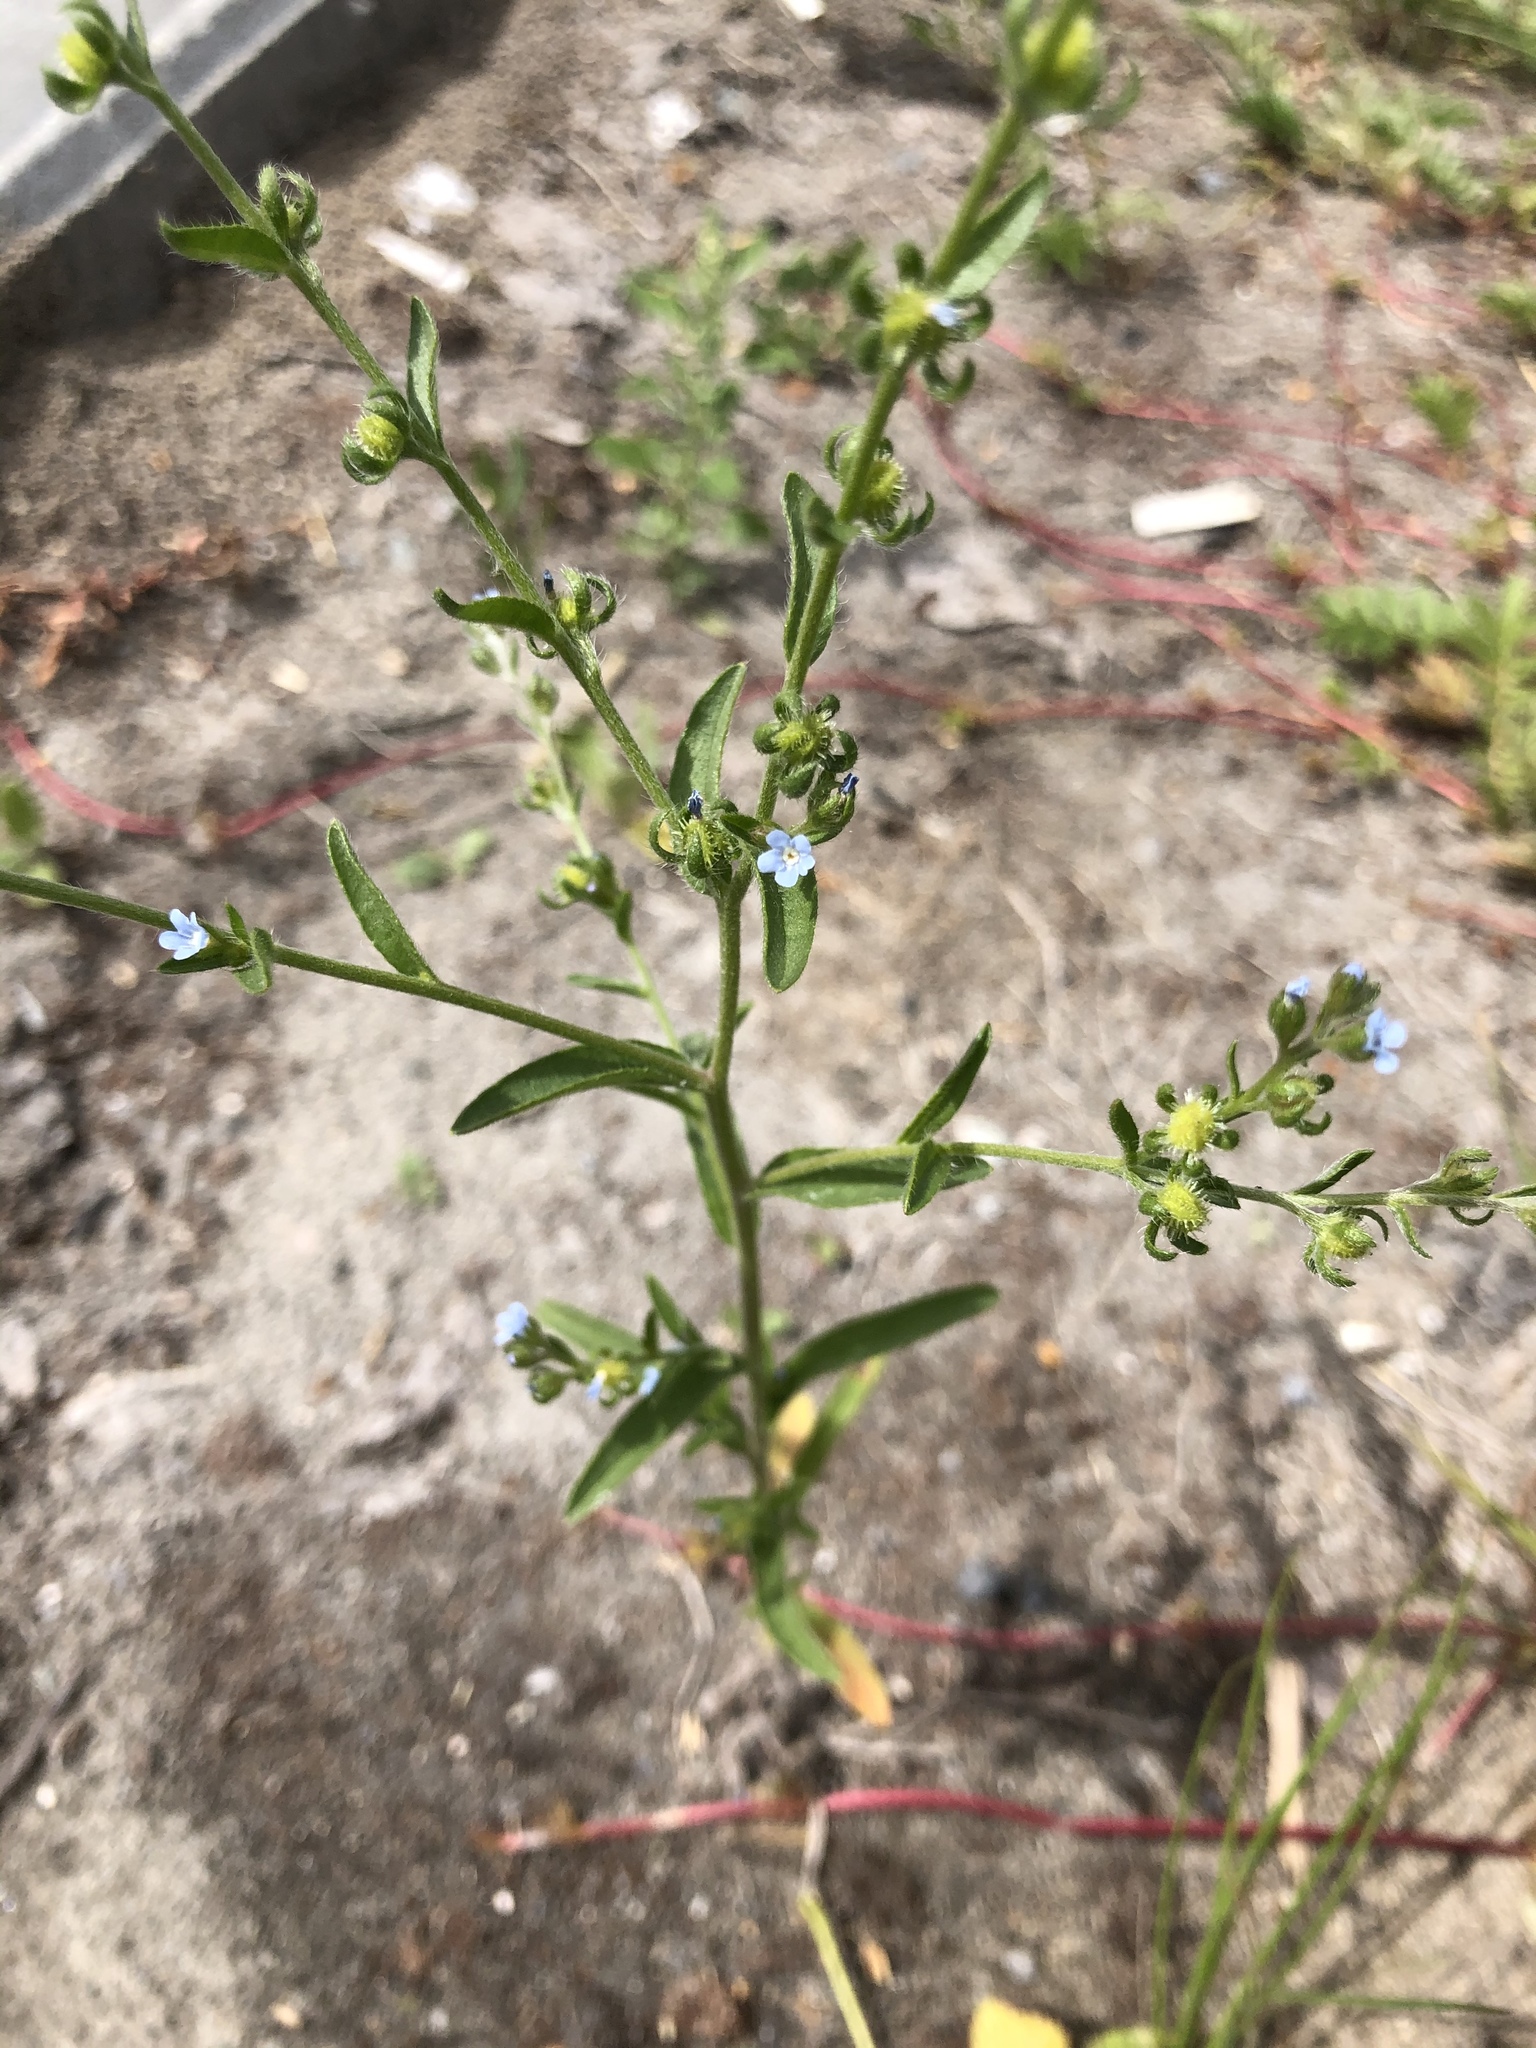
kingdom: Plantae
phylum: Tracheophyta
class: Magnoliopsida
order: Boraginales
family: Boraginaceae
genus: Lappula
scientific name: Lappula squarrosa
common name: European stickseed
